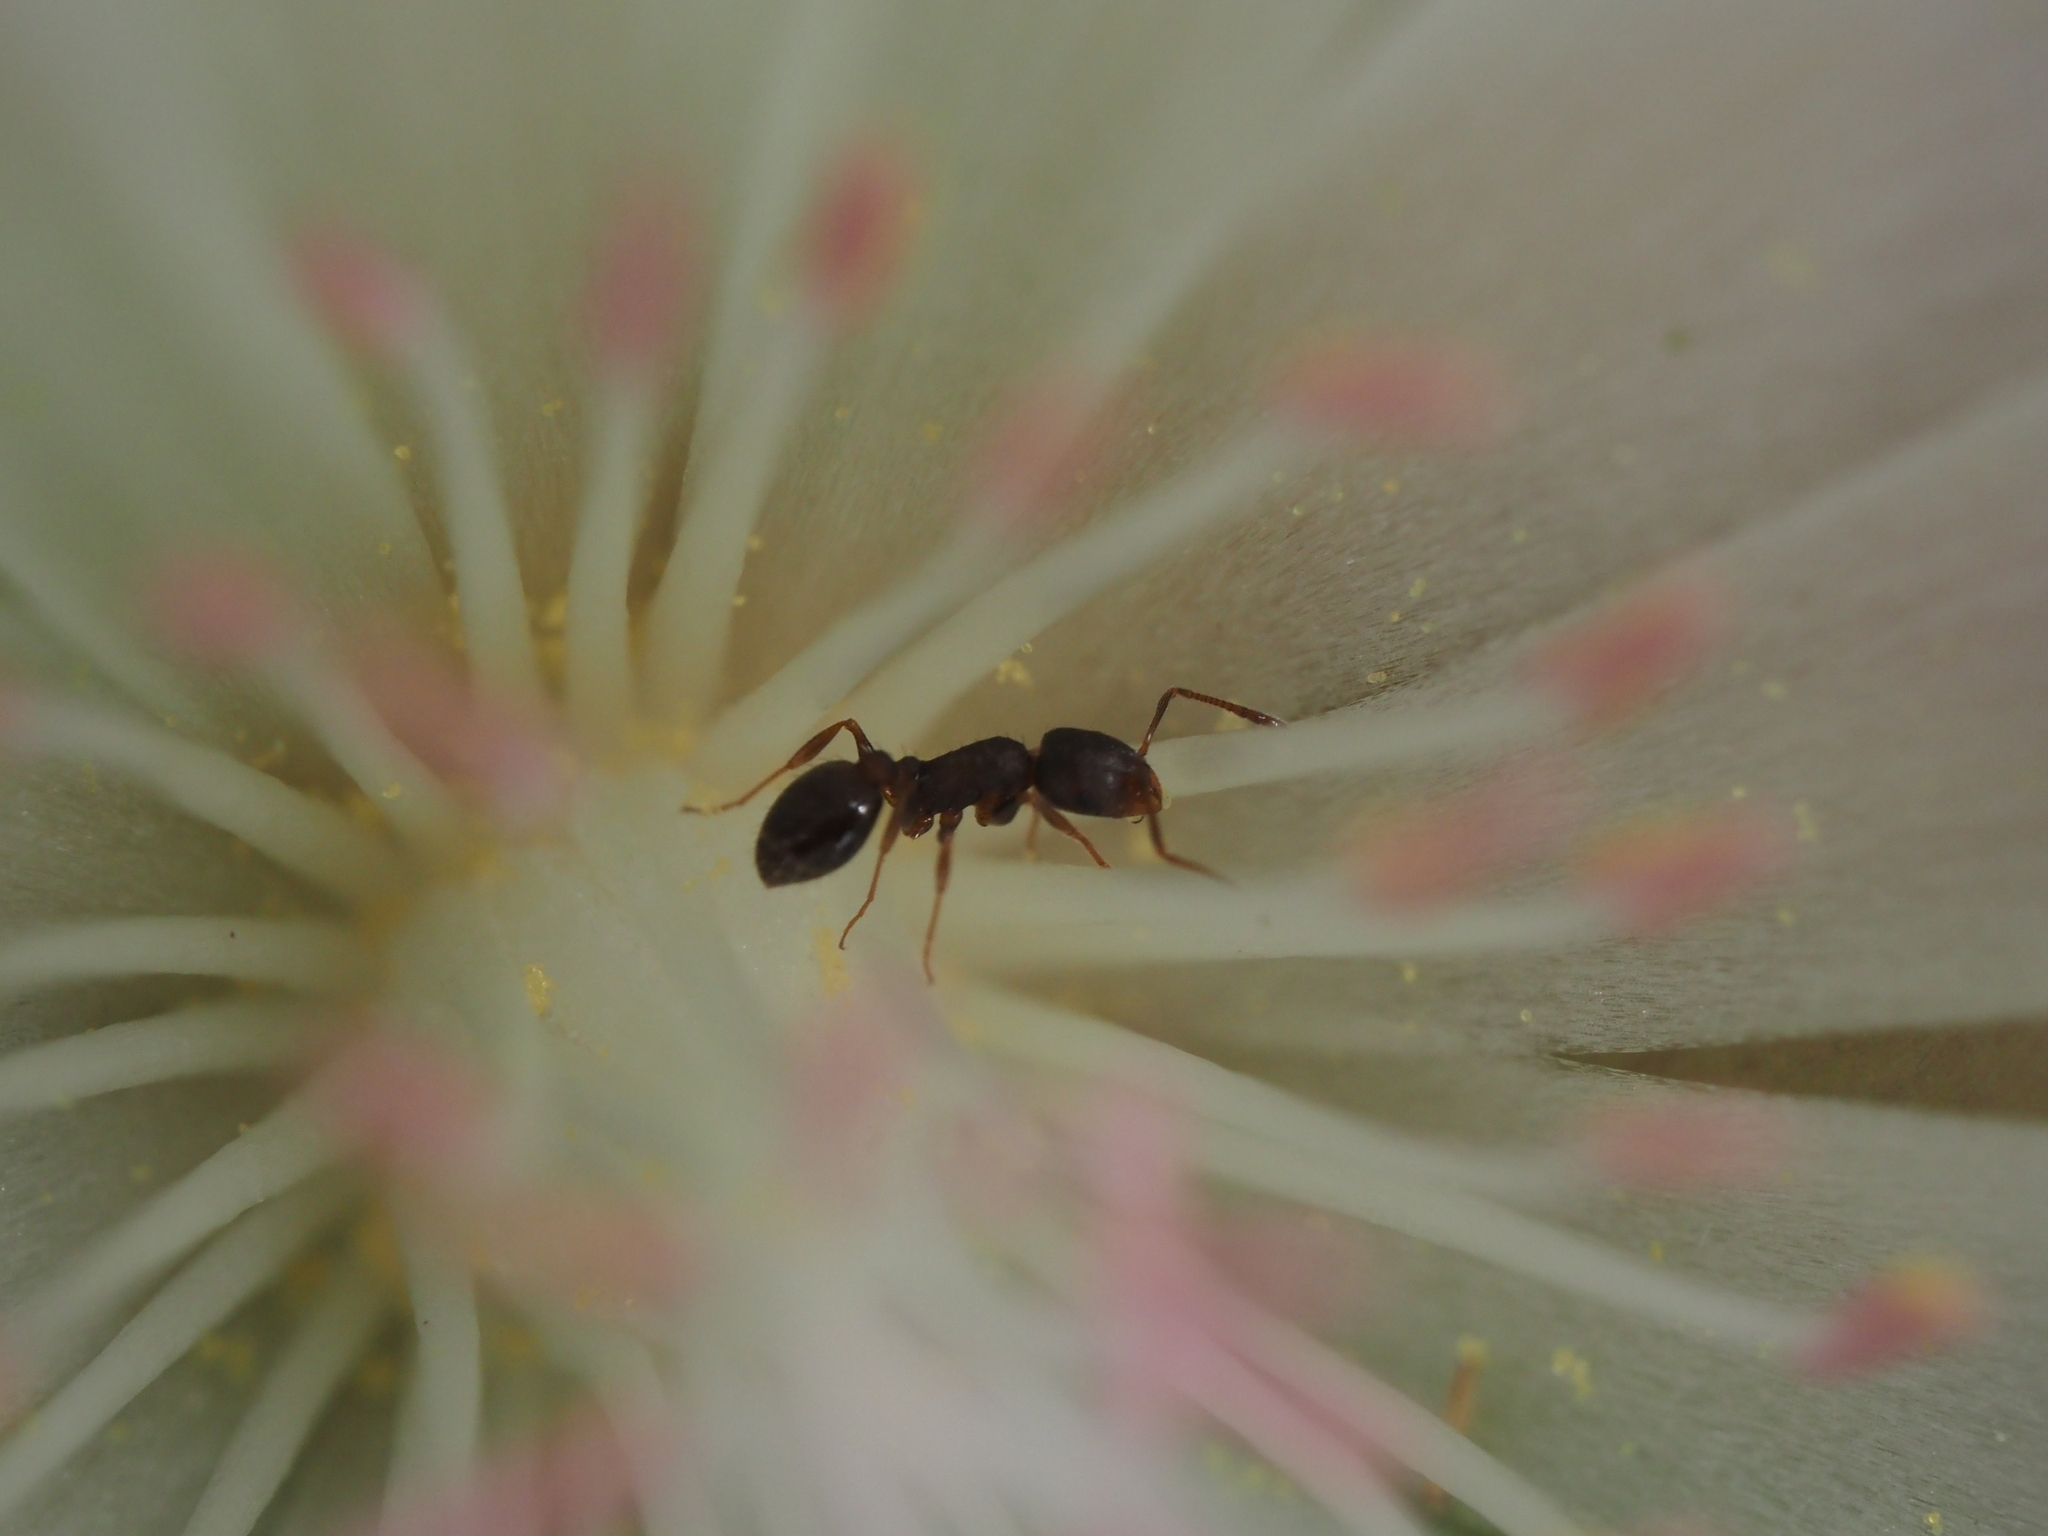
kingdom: Plantae
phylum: Tracheophyta
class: Magnoliopsida
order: Caryophyllales
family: Montiaceae
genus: Lewisia
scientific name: Lewisia rediviva
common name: Bitter-root
